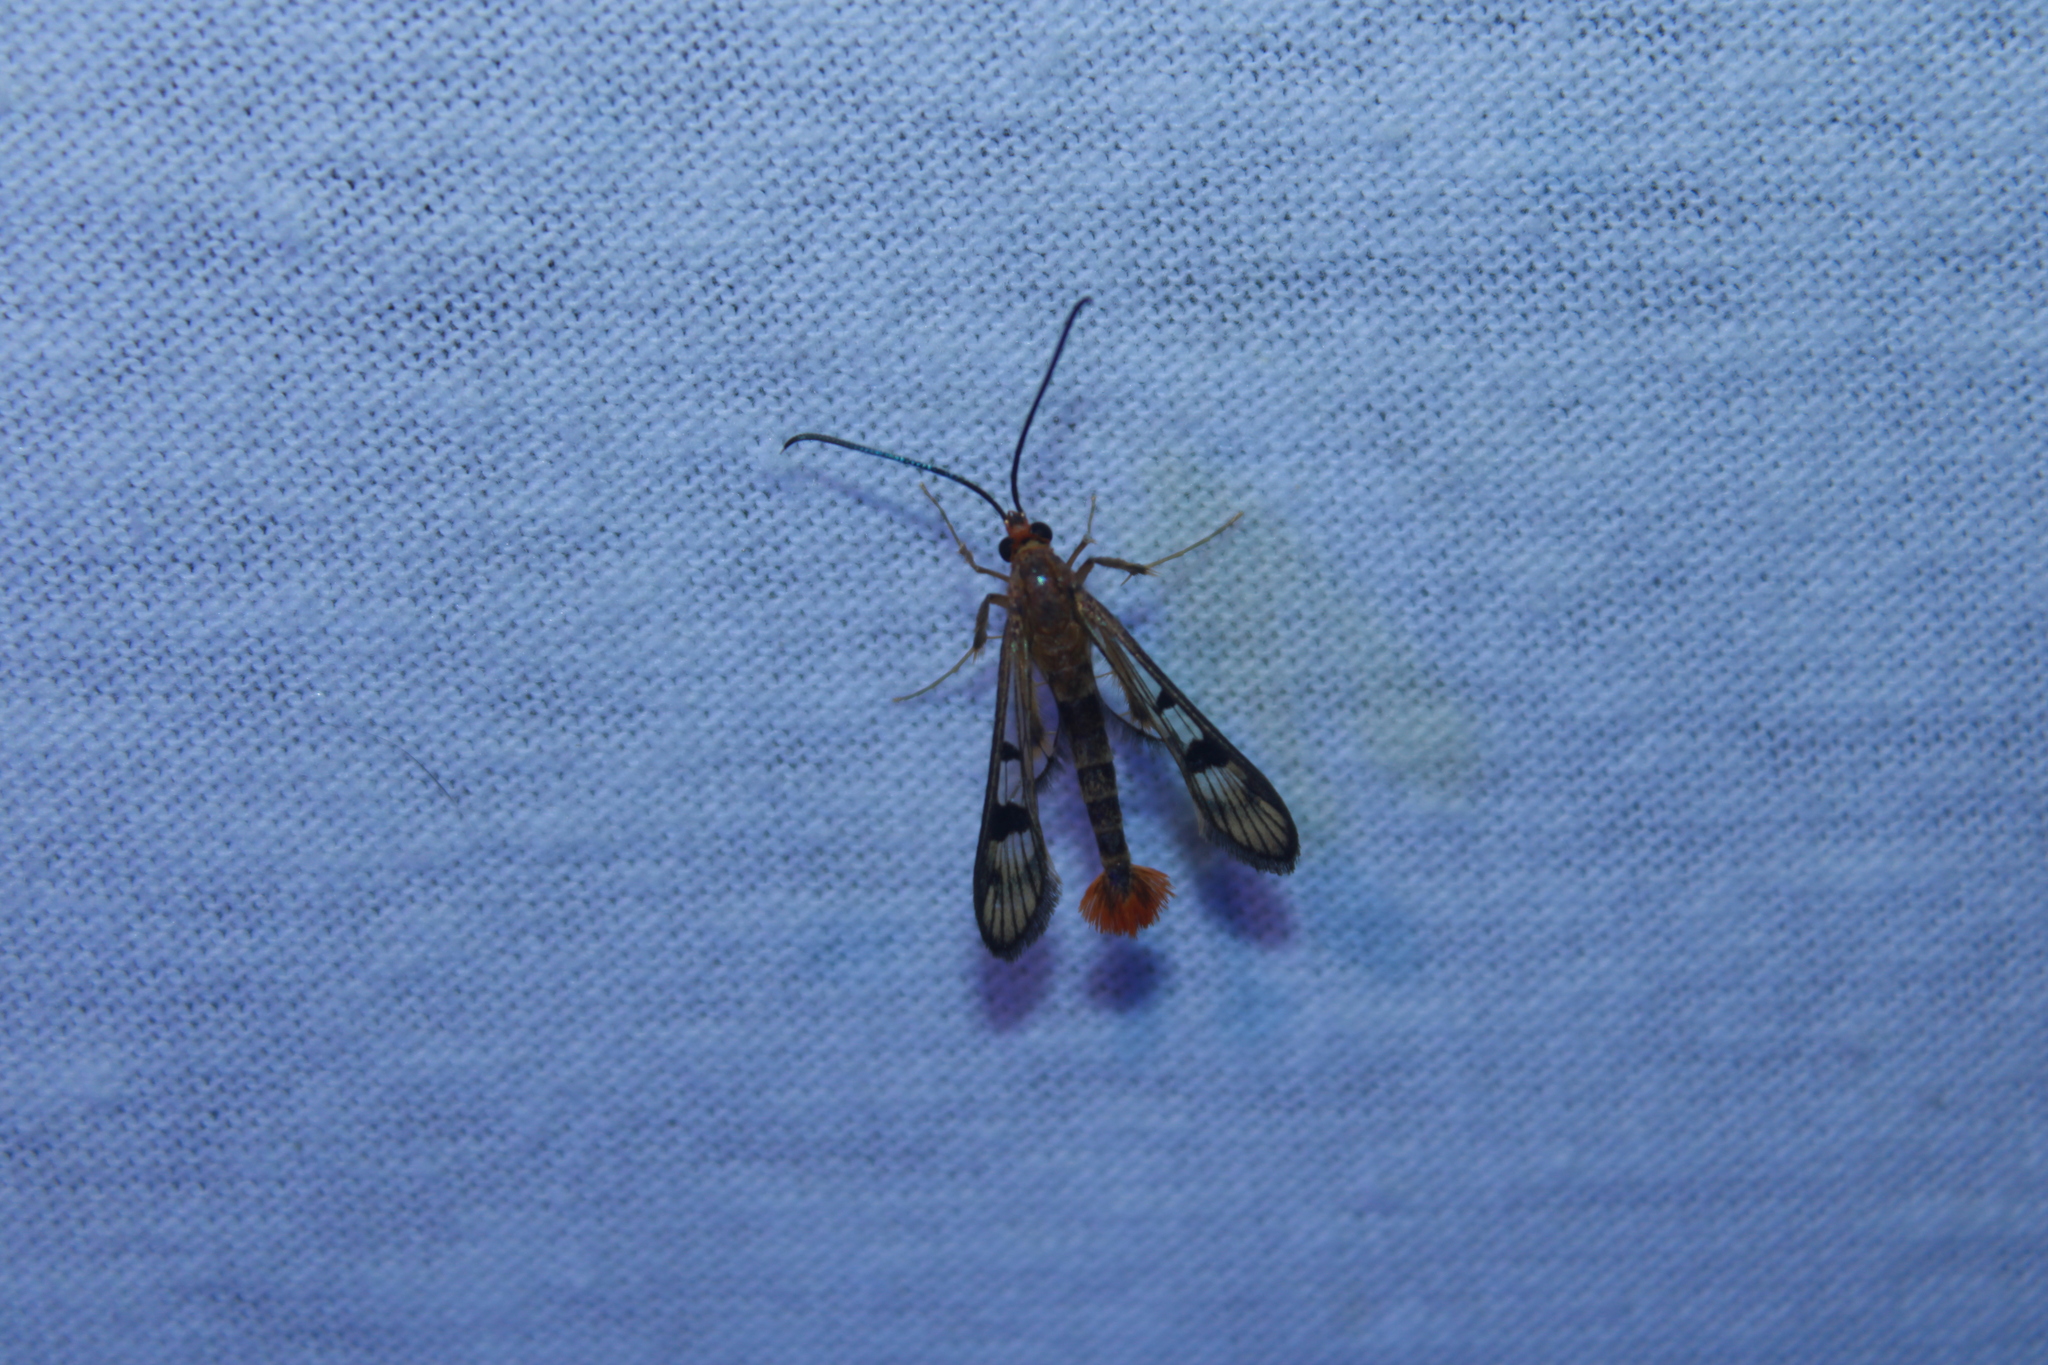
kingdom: Animalia
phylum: Arthropoda
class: Insecta
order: Lepidoptera
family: Sesiidae
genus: Synanthedon
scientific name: Synanthedon acerni
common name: Maple callus borer moth
